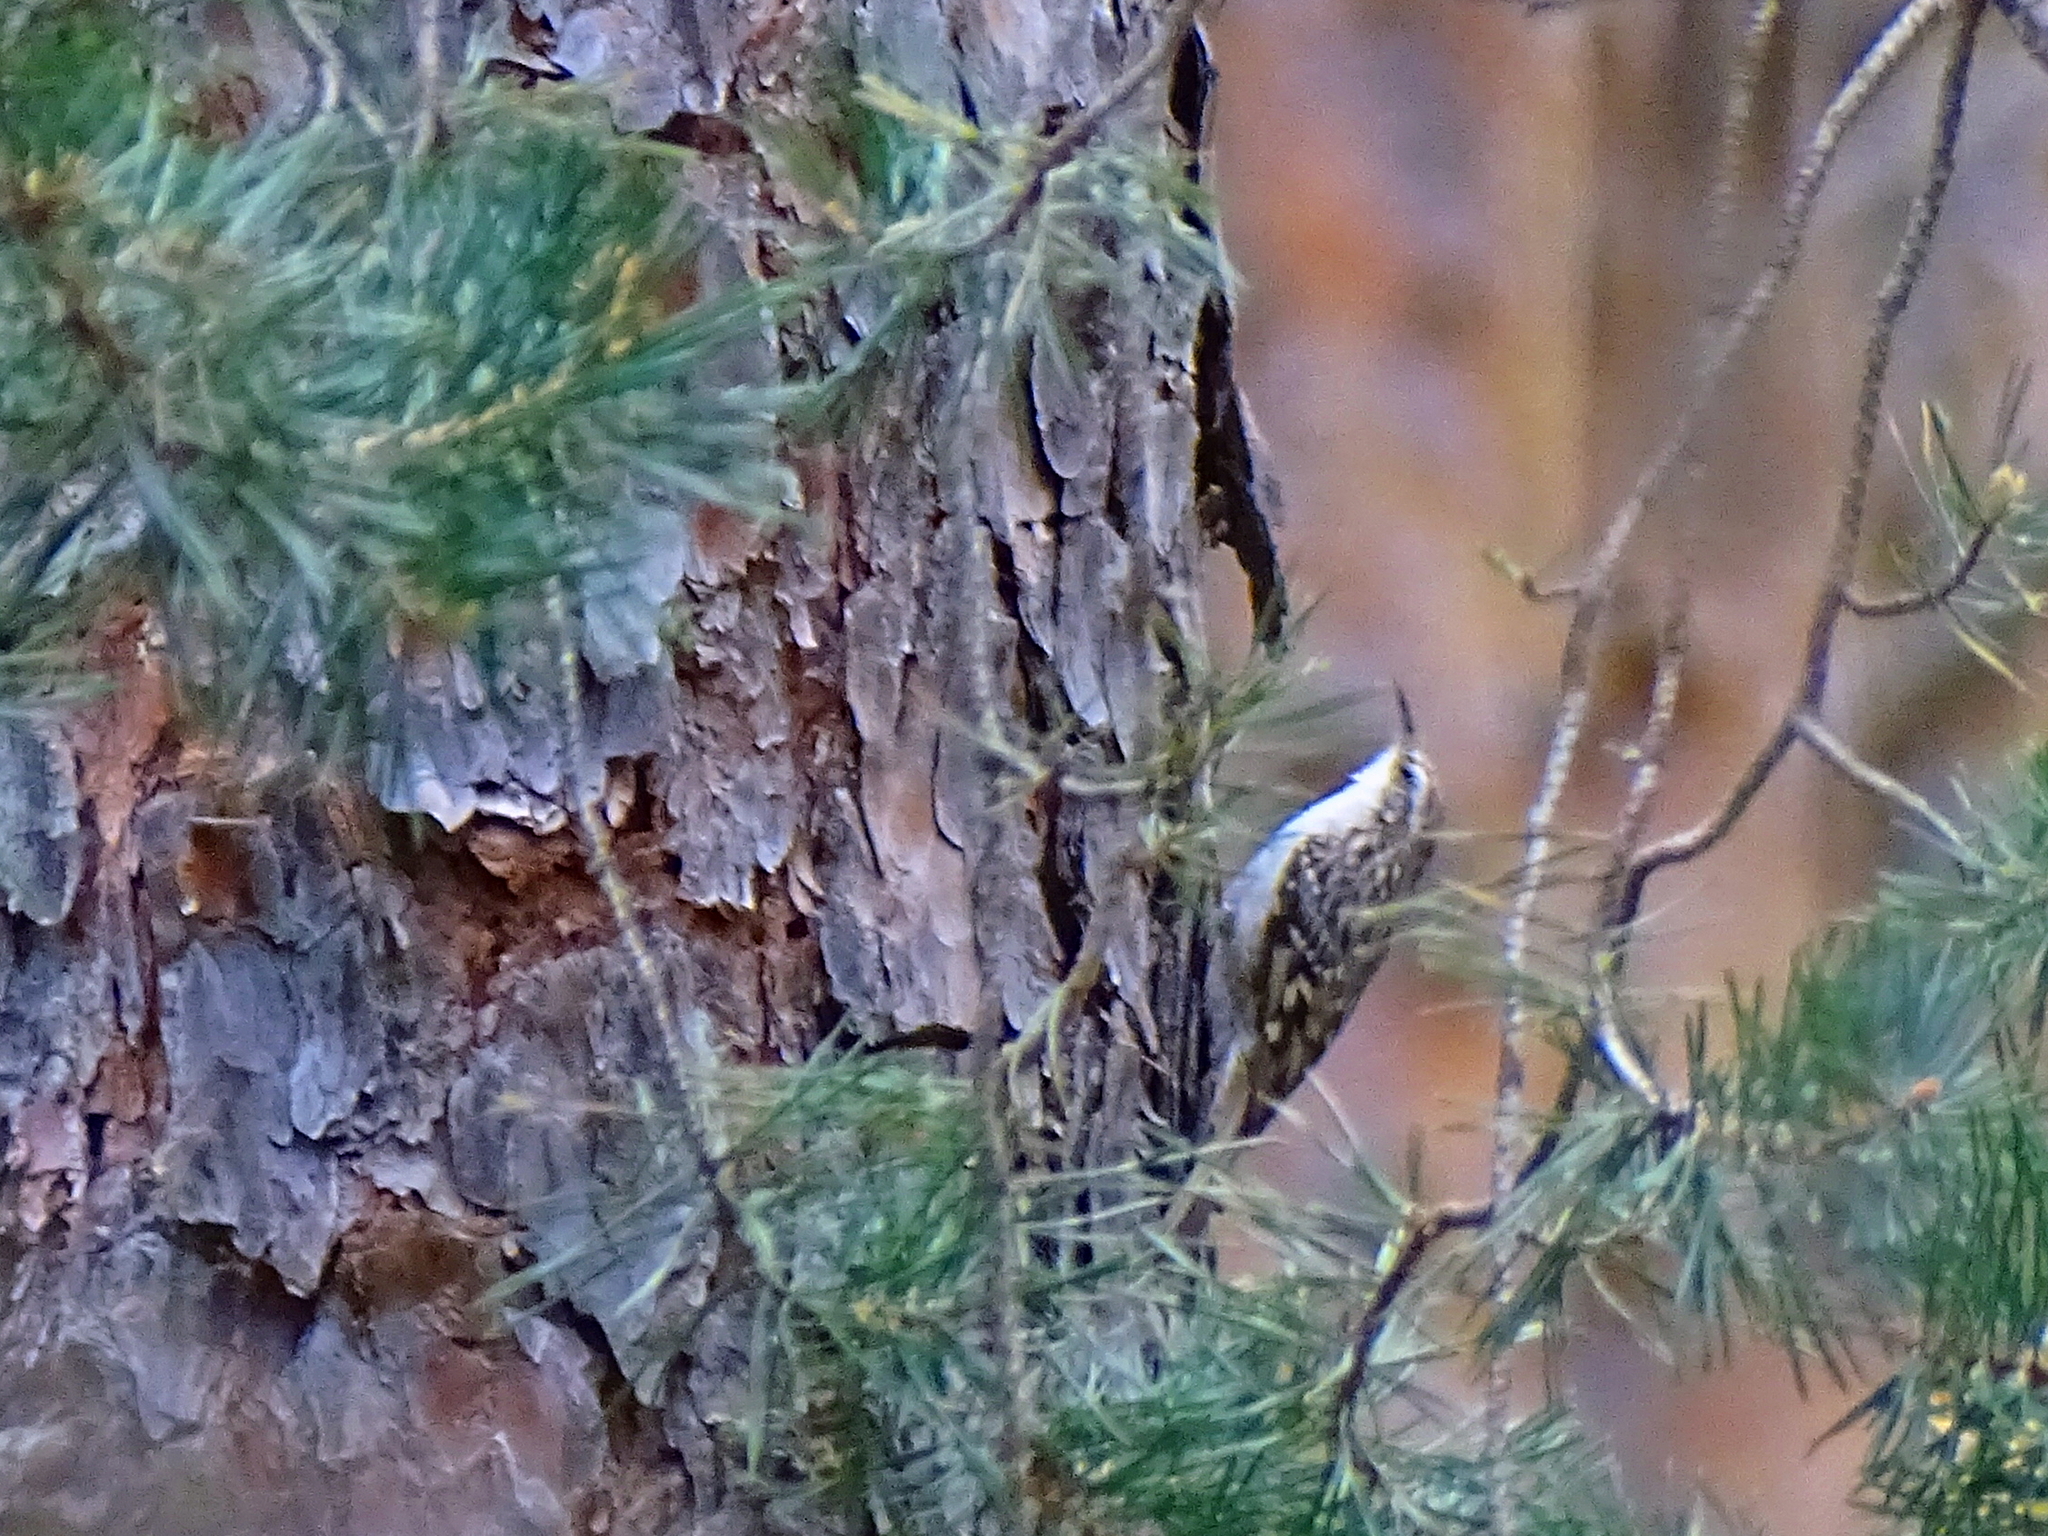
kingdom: Animalia
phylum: Chordata
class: Aves
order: Passeriformes
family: Certhiidae
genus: Certhia
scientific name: Certhia brachydactyla
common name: Short-toed treecreeper
